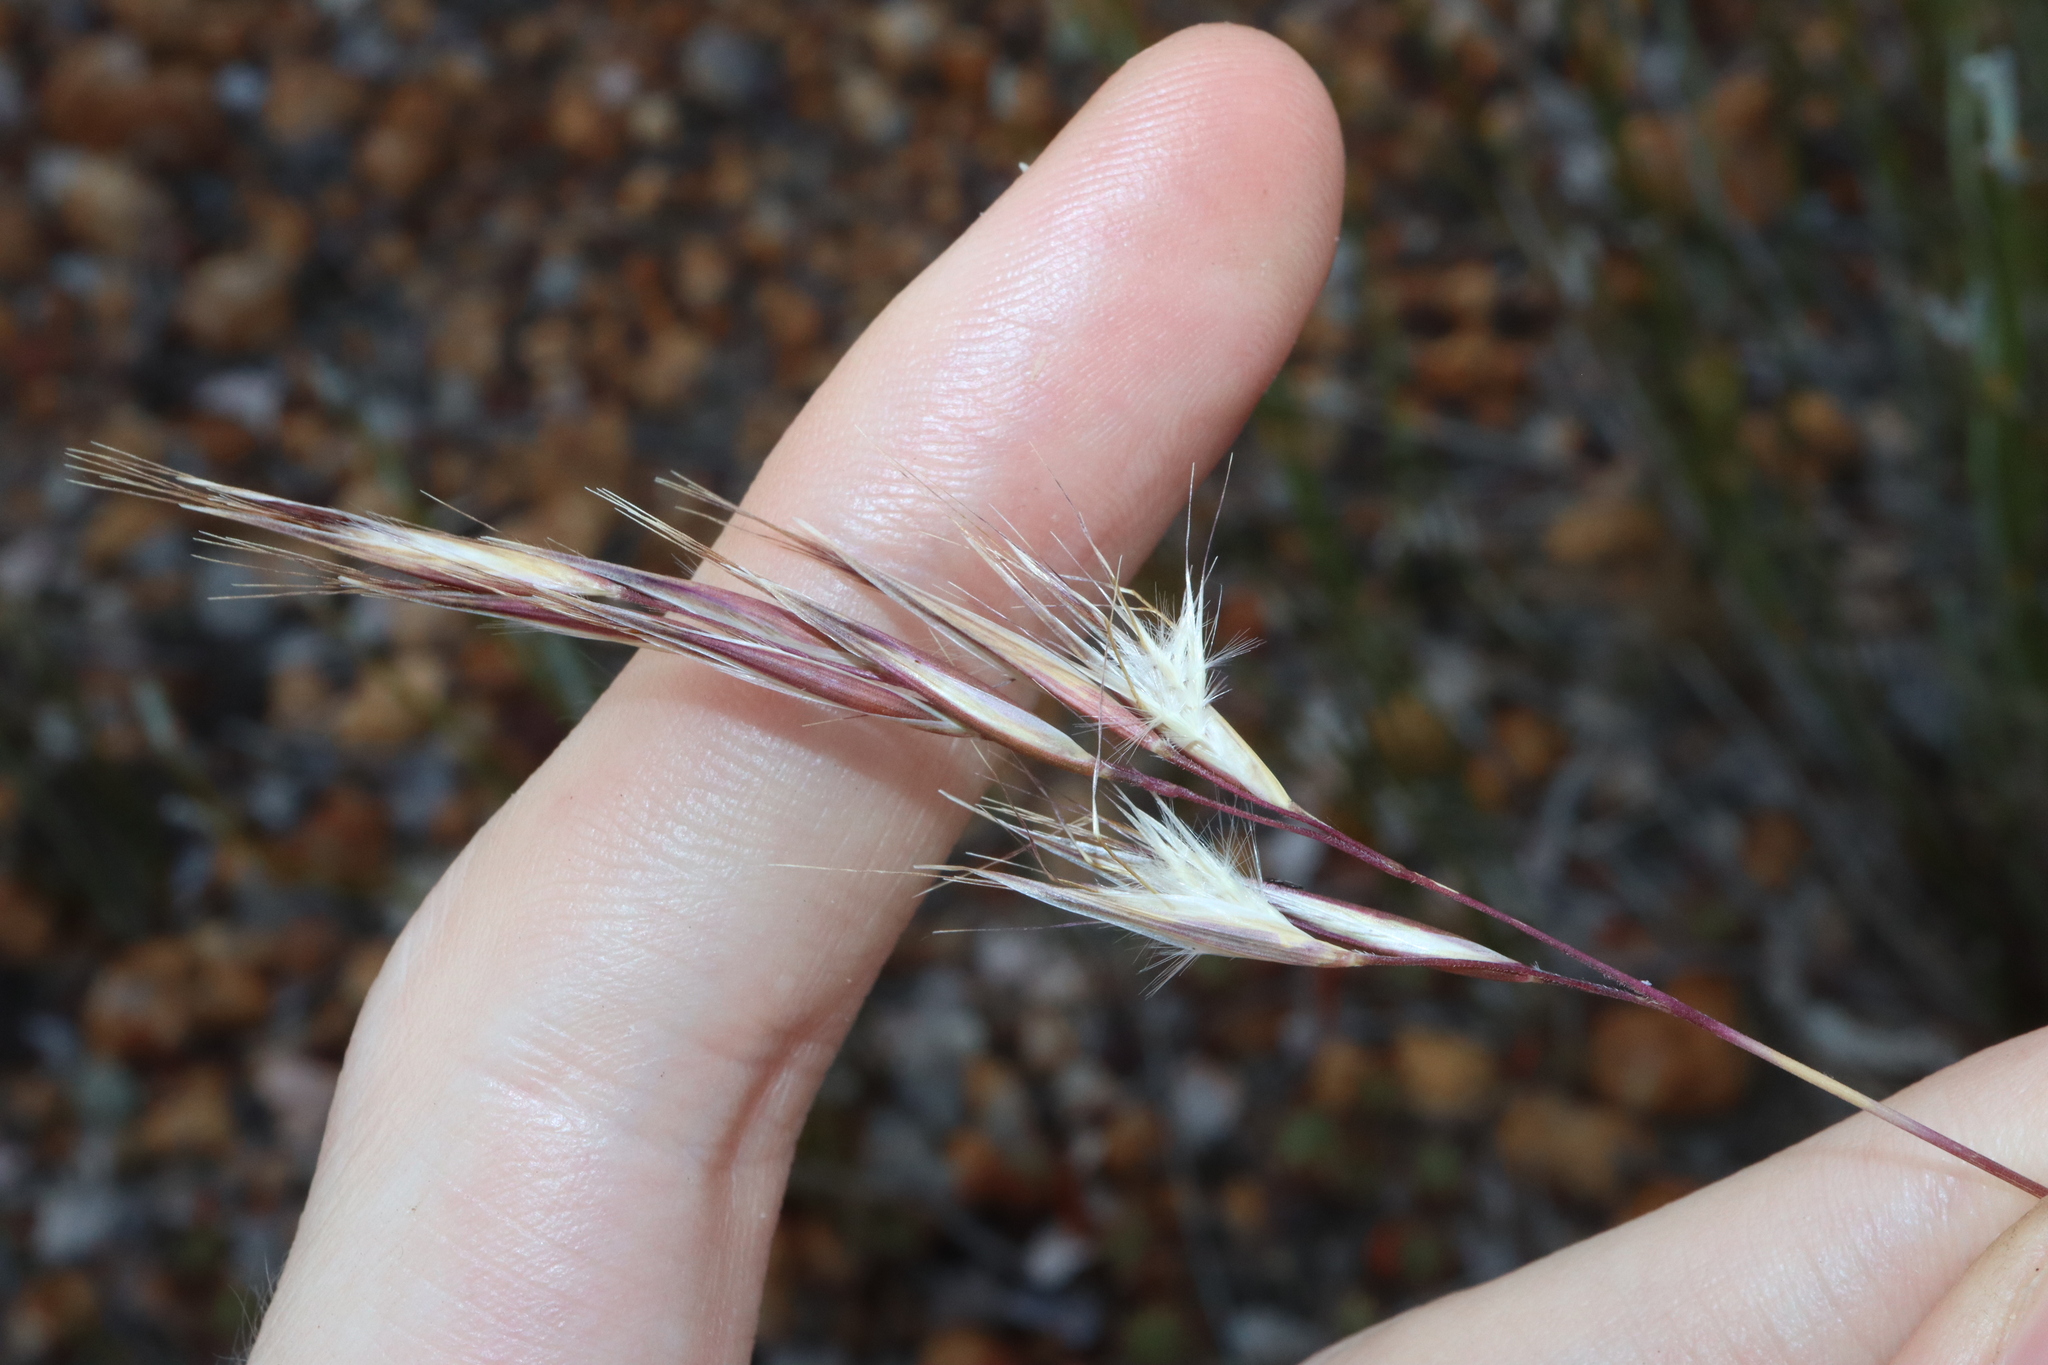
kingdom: Plantae
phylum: Tracheophyta
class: Liliopsida
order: Poales
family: Poaceae
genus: Rytidosperma
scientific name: Rytidosperma setaceum
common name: Small-flower wallaby grass
